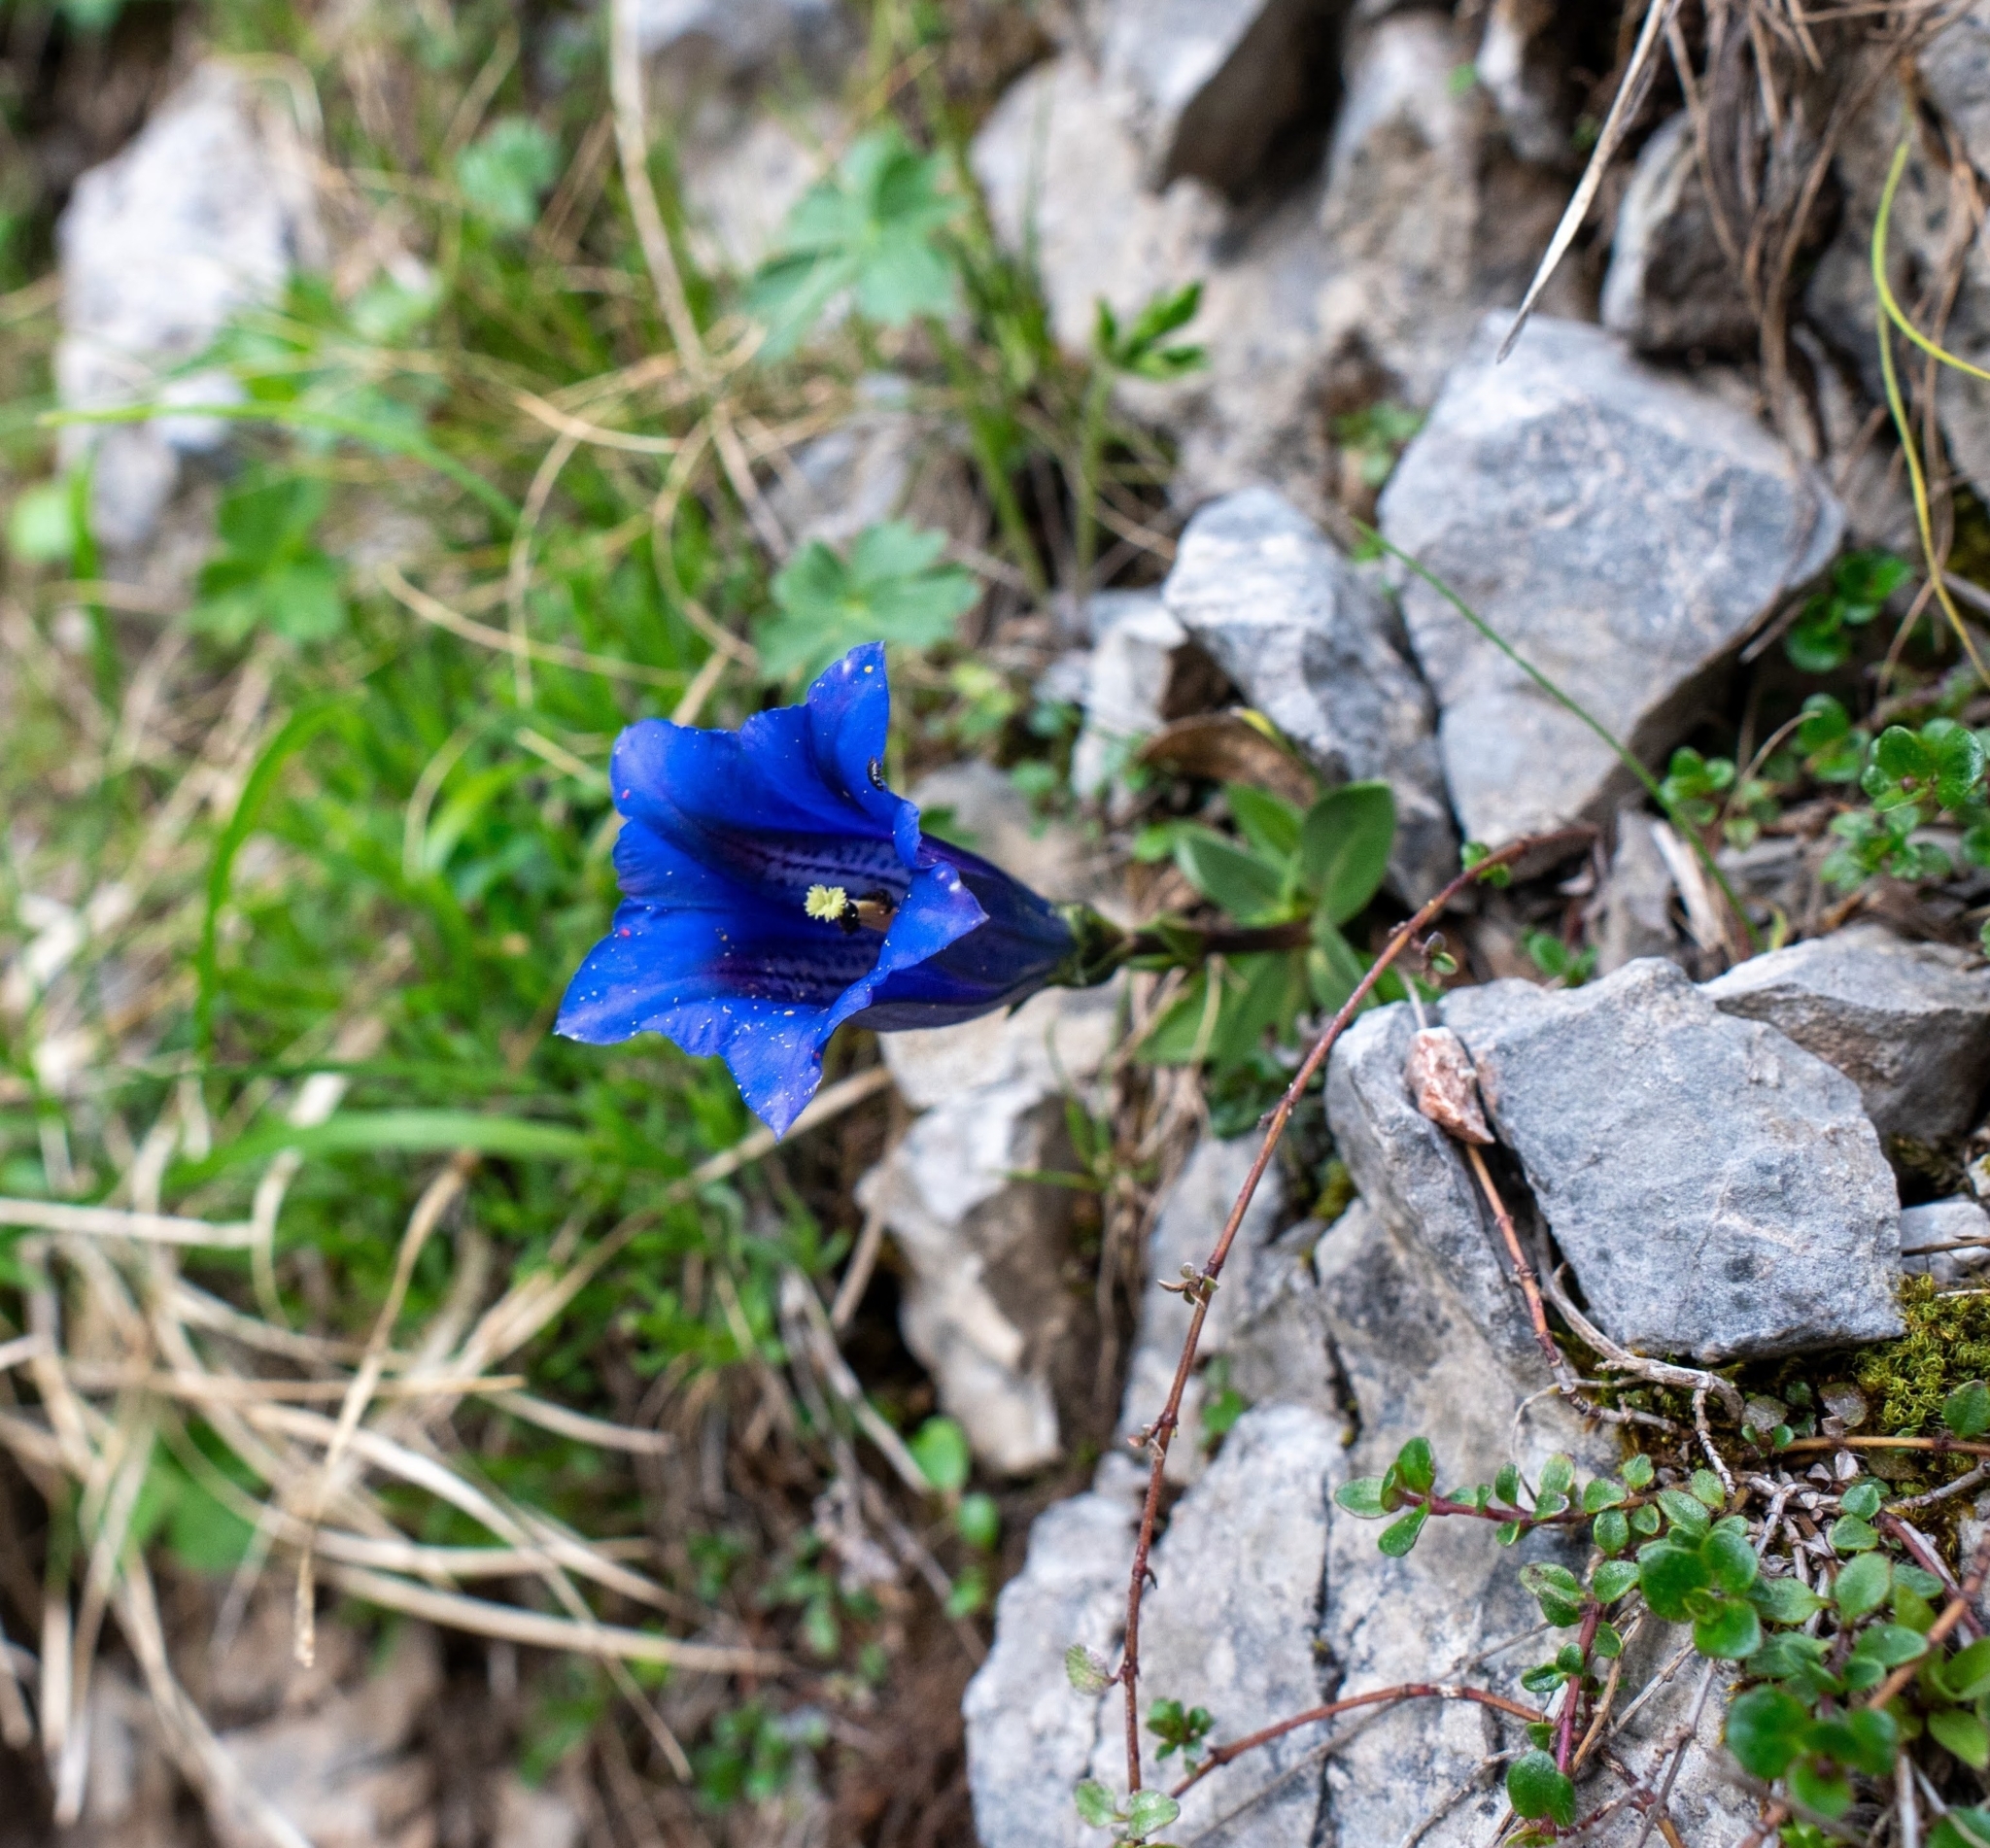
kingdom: Plantae
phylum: Tracheophyta
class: Magnoliopsida
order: Gentianales
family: Gentianaceae
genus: Gentiana
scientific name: Gentiana clusii
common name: Trumpet gentian
